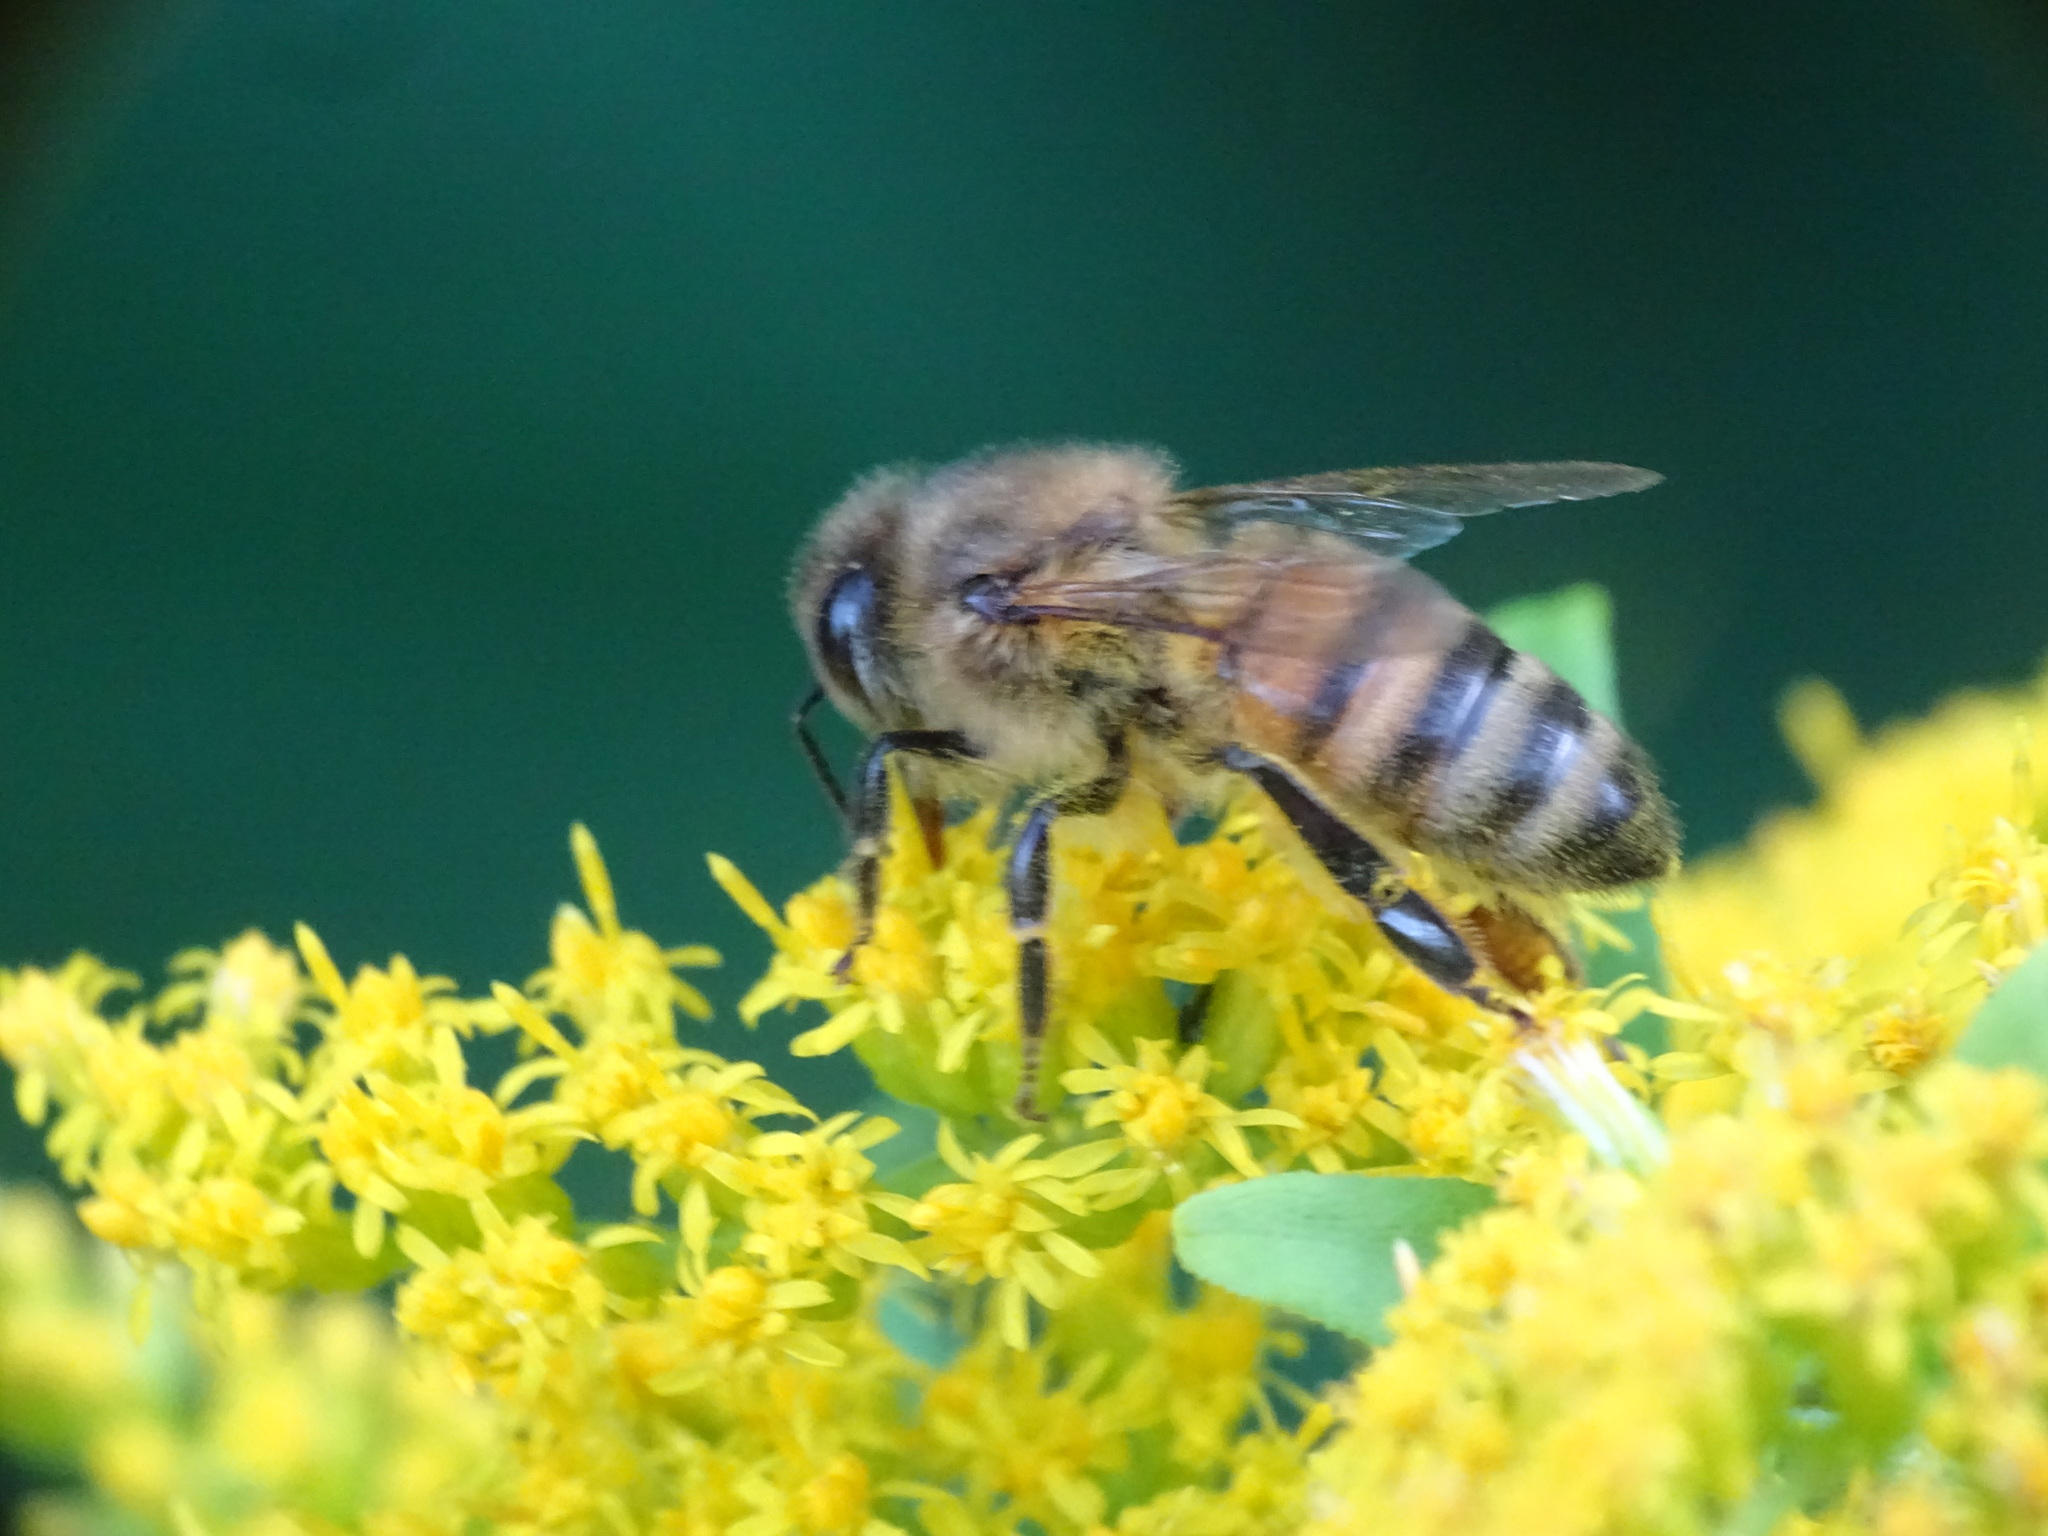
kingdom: Animalia
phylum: Arthropoda
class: Insecta
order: Hymenoptera
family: Apidae
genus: Apis
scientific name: Apis mellifera
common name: Honey bee
